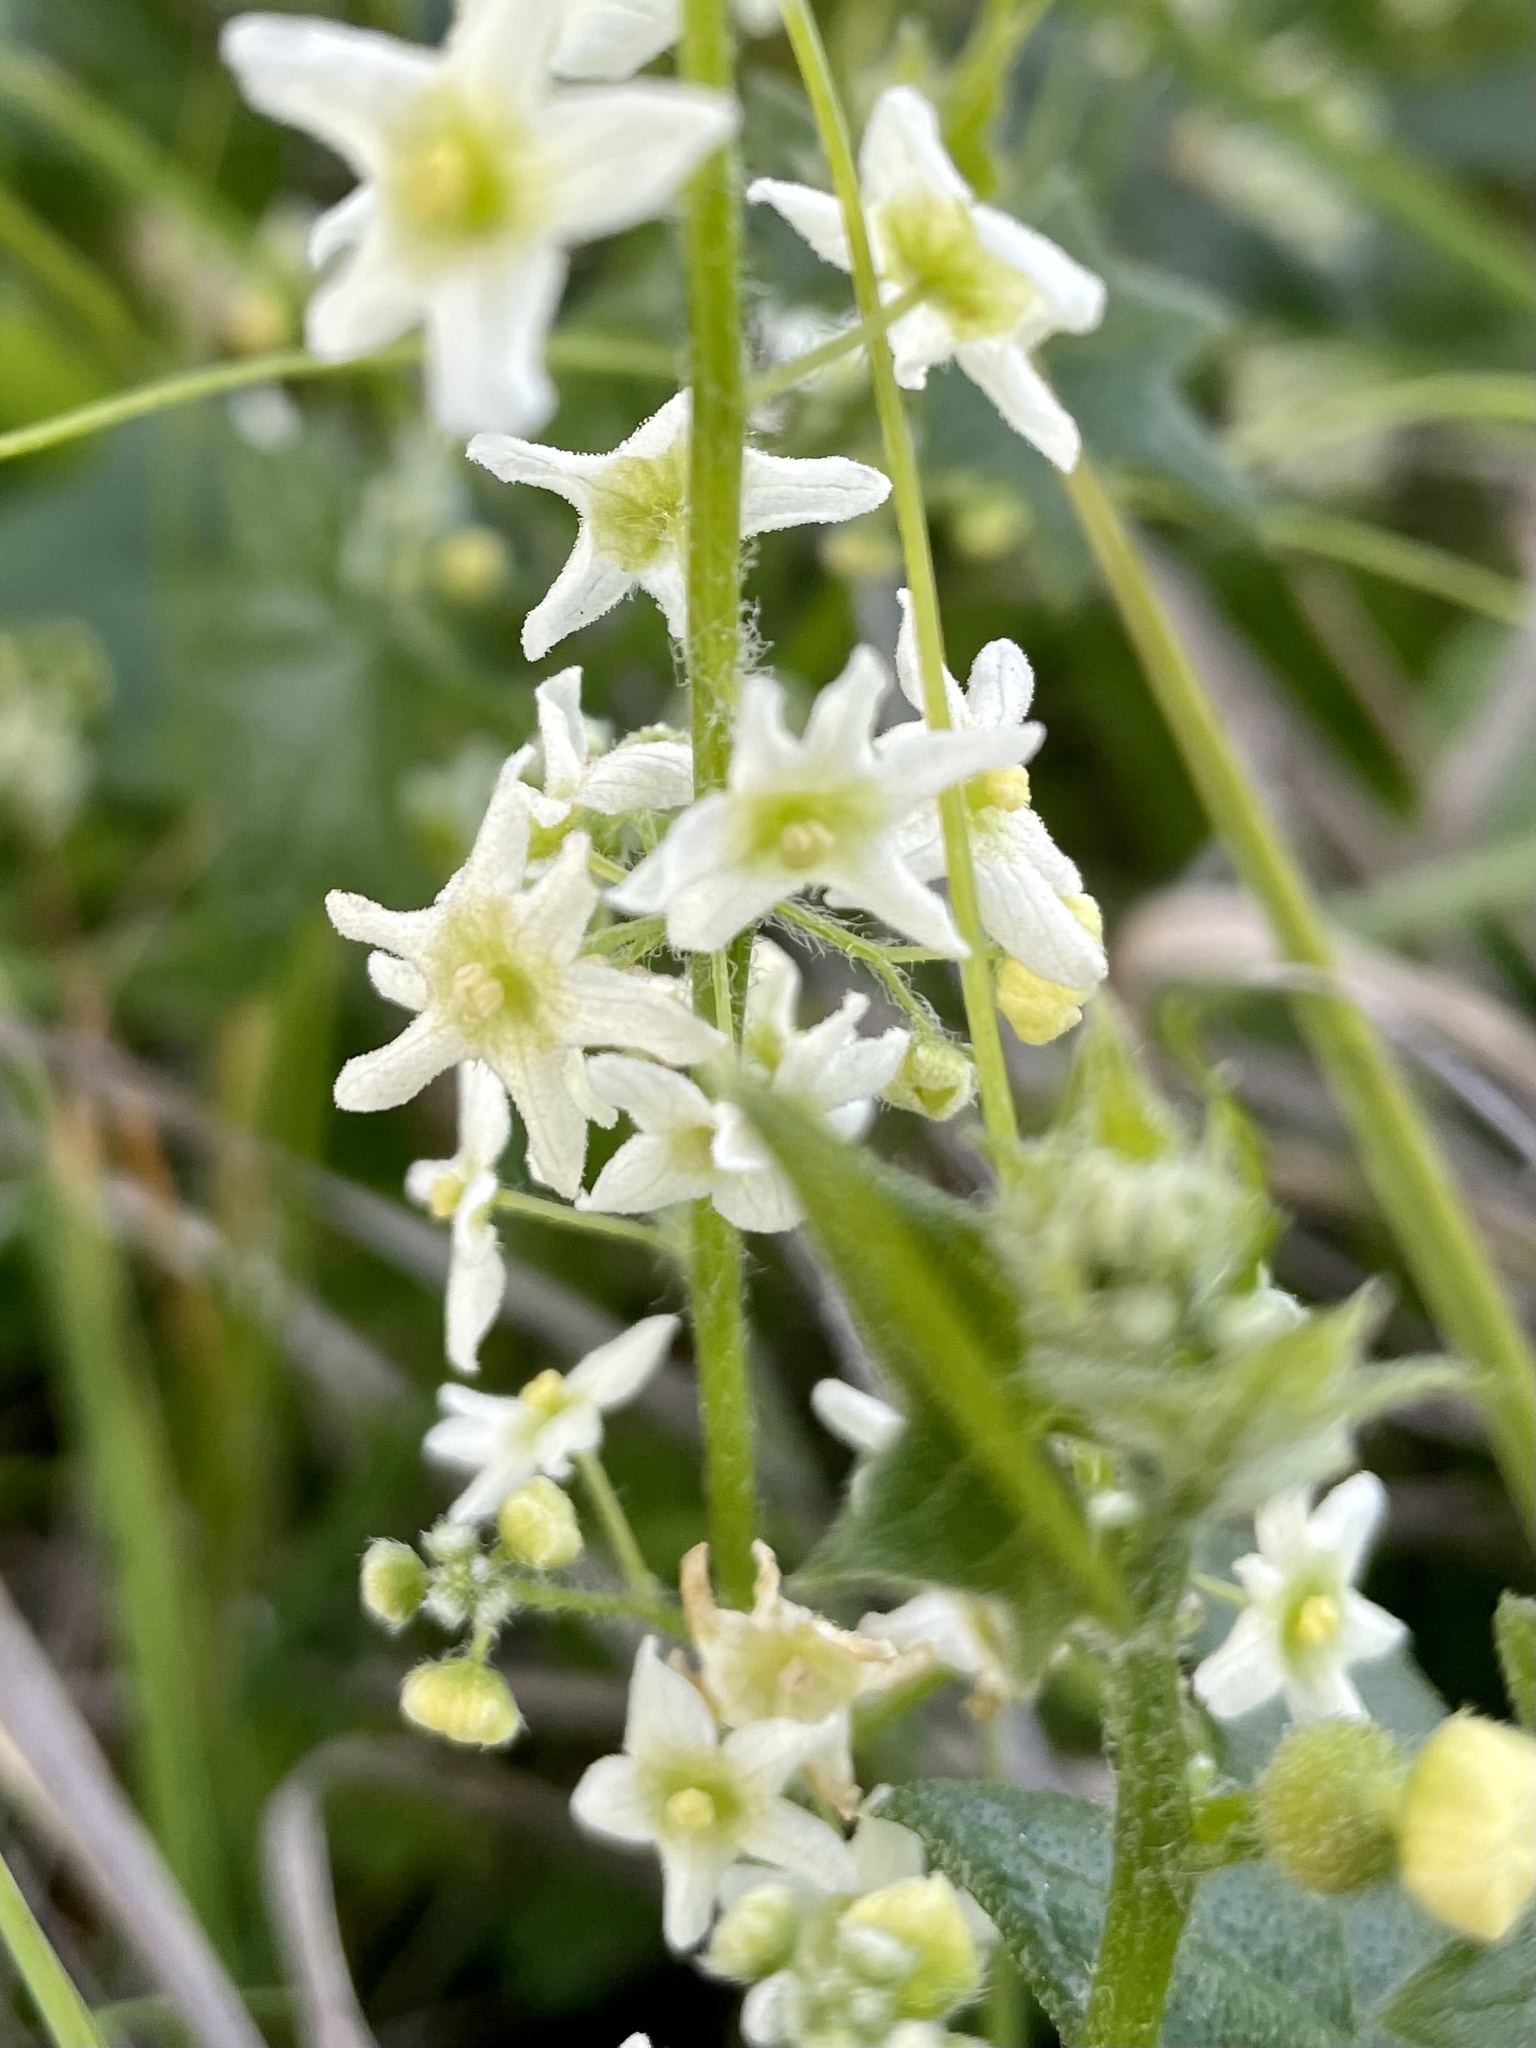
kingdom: Plantae
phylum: Tracheophyta
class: Magnoliopsida
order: Cucurbitales
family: Cucurbitaceae
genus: Marah
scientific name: Marah fabacea
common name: California manroot
